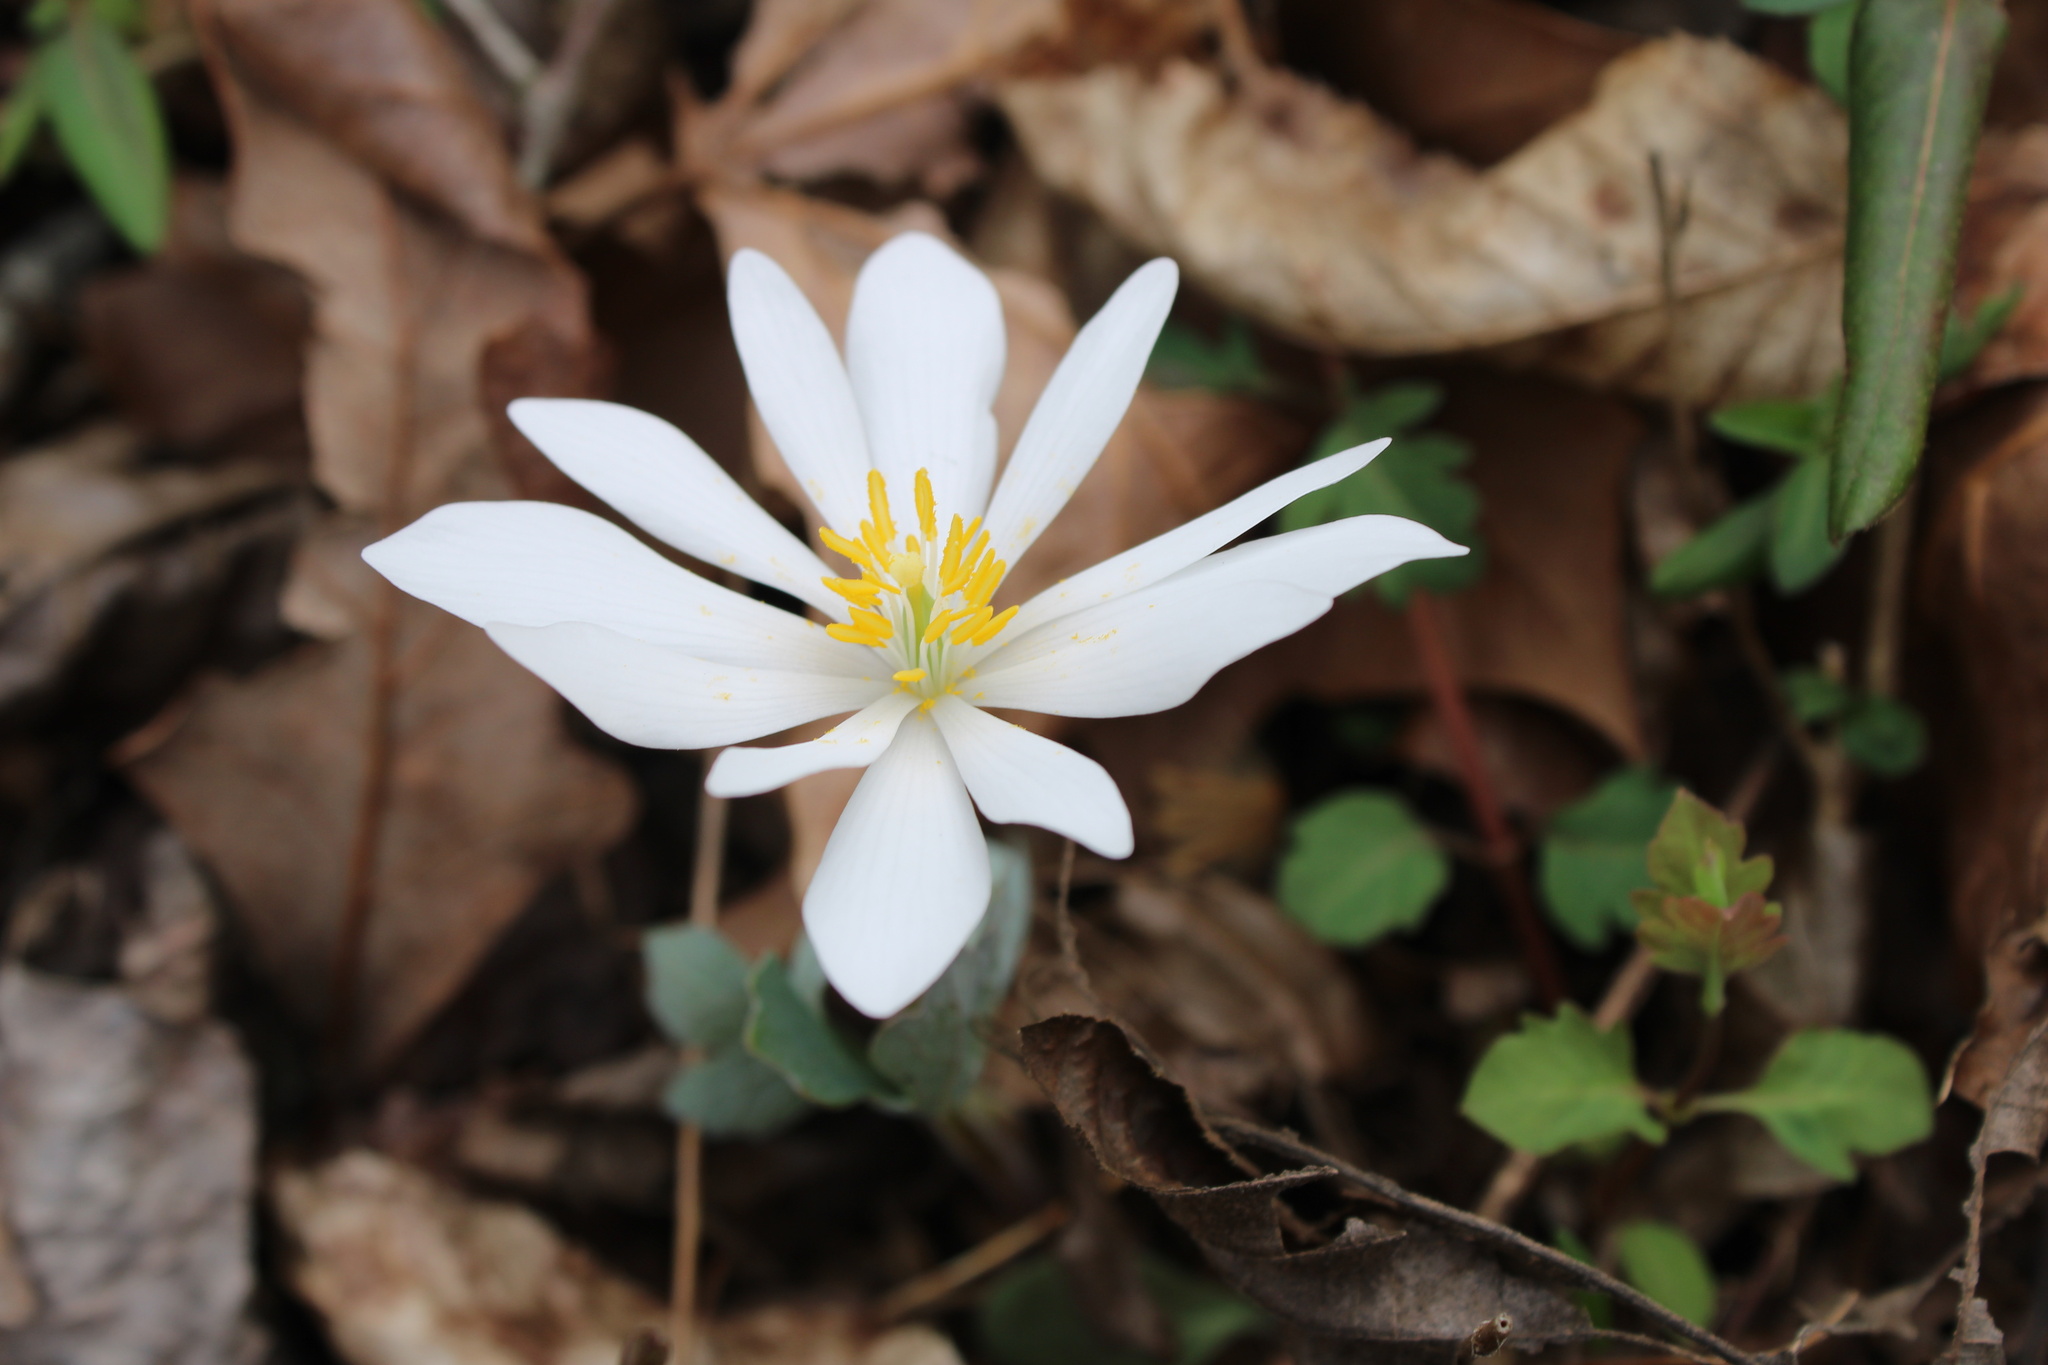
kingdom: Plantae
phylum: Tracheophyta
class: Magnoliopsida
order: Ranunculales
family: Papaveraceae
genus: Sanguinaria
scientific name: Sanguinaria canadensis
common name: Bloodroot
